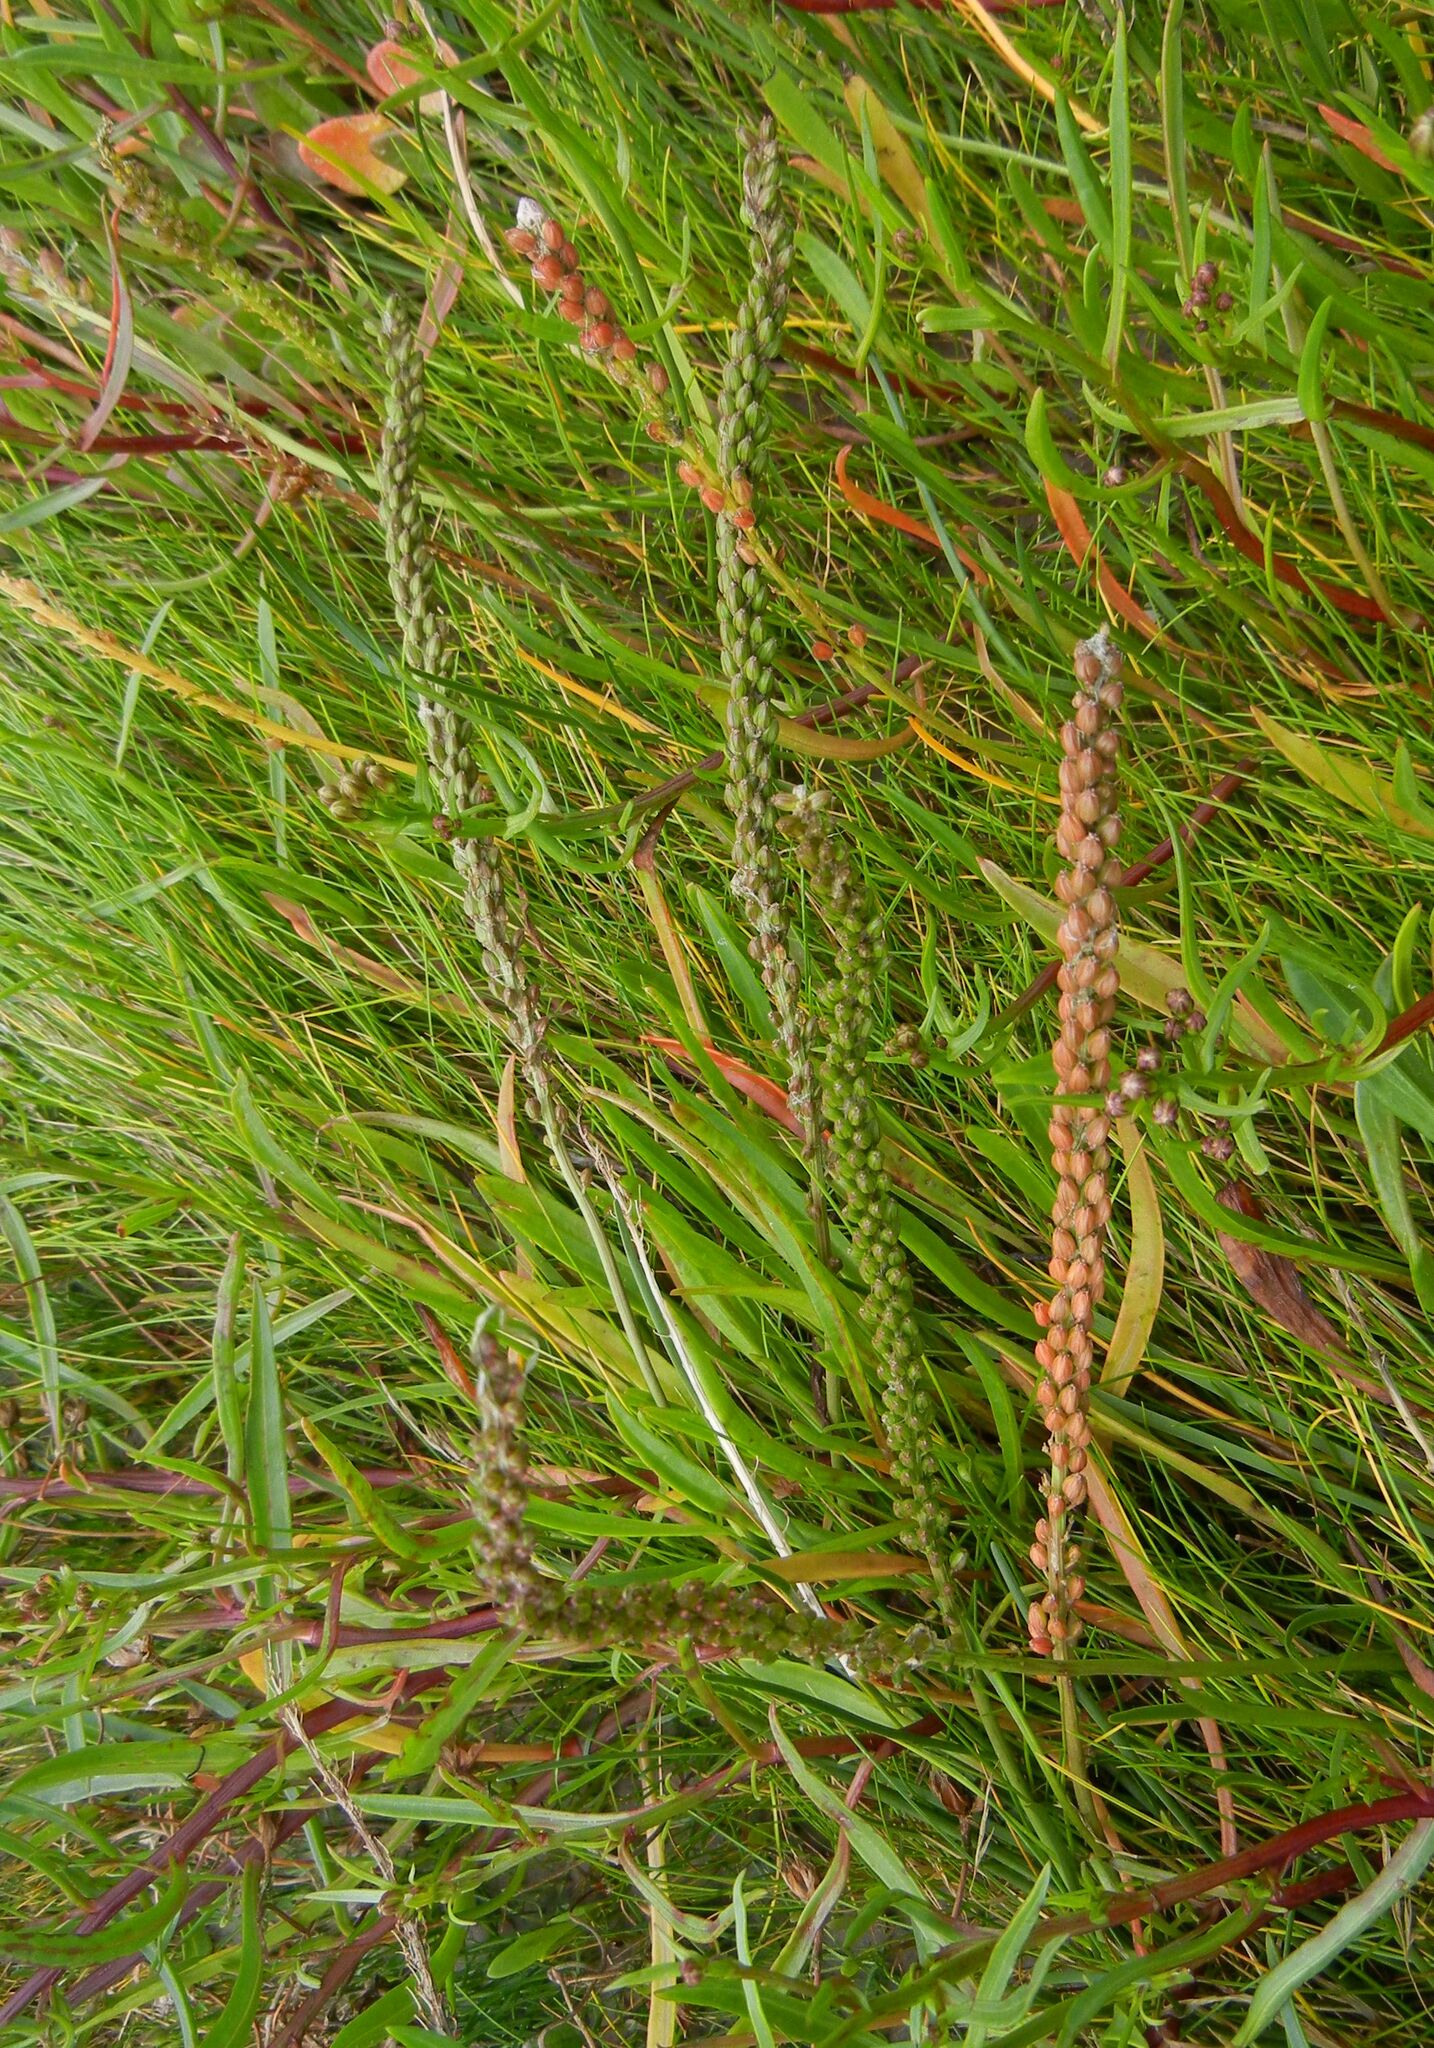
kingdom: Plantae
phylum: Tracheophyta
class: Liliopsida
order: Alismatales
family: Juncaginaceae
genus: Triglochin
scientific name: Triglochin maritima
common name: Sea arrowgrass
